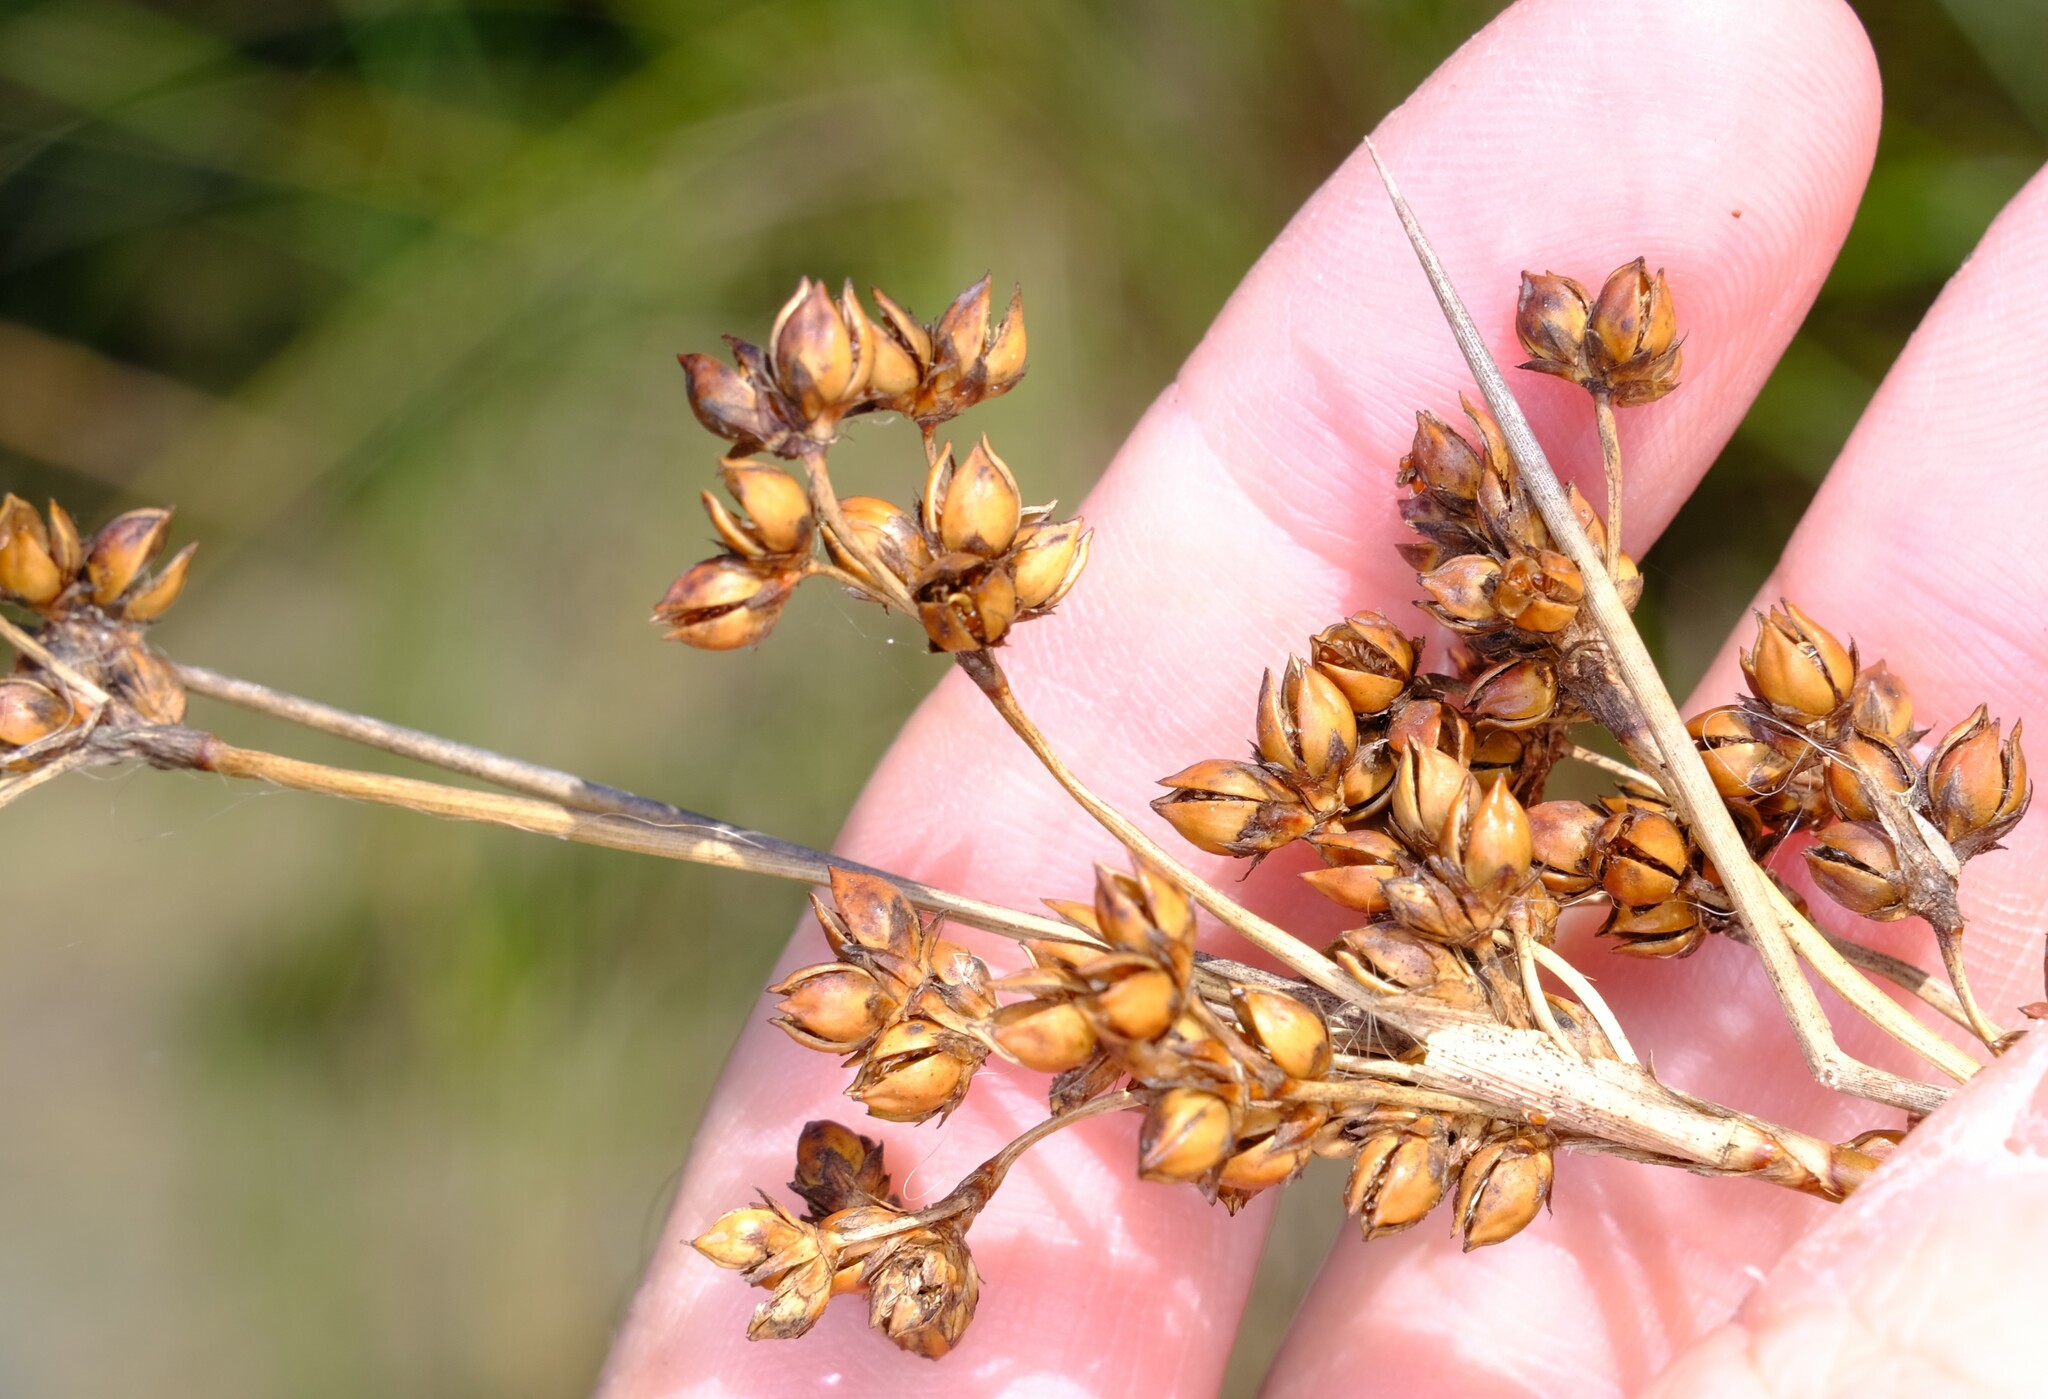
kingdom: Plantae
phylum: Tracheophyta
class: Liliopsida
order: Poales
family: Juncaceae
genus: Juncus
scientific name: Juncus acutus
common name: Sharp rush
